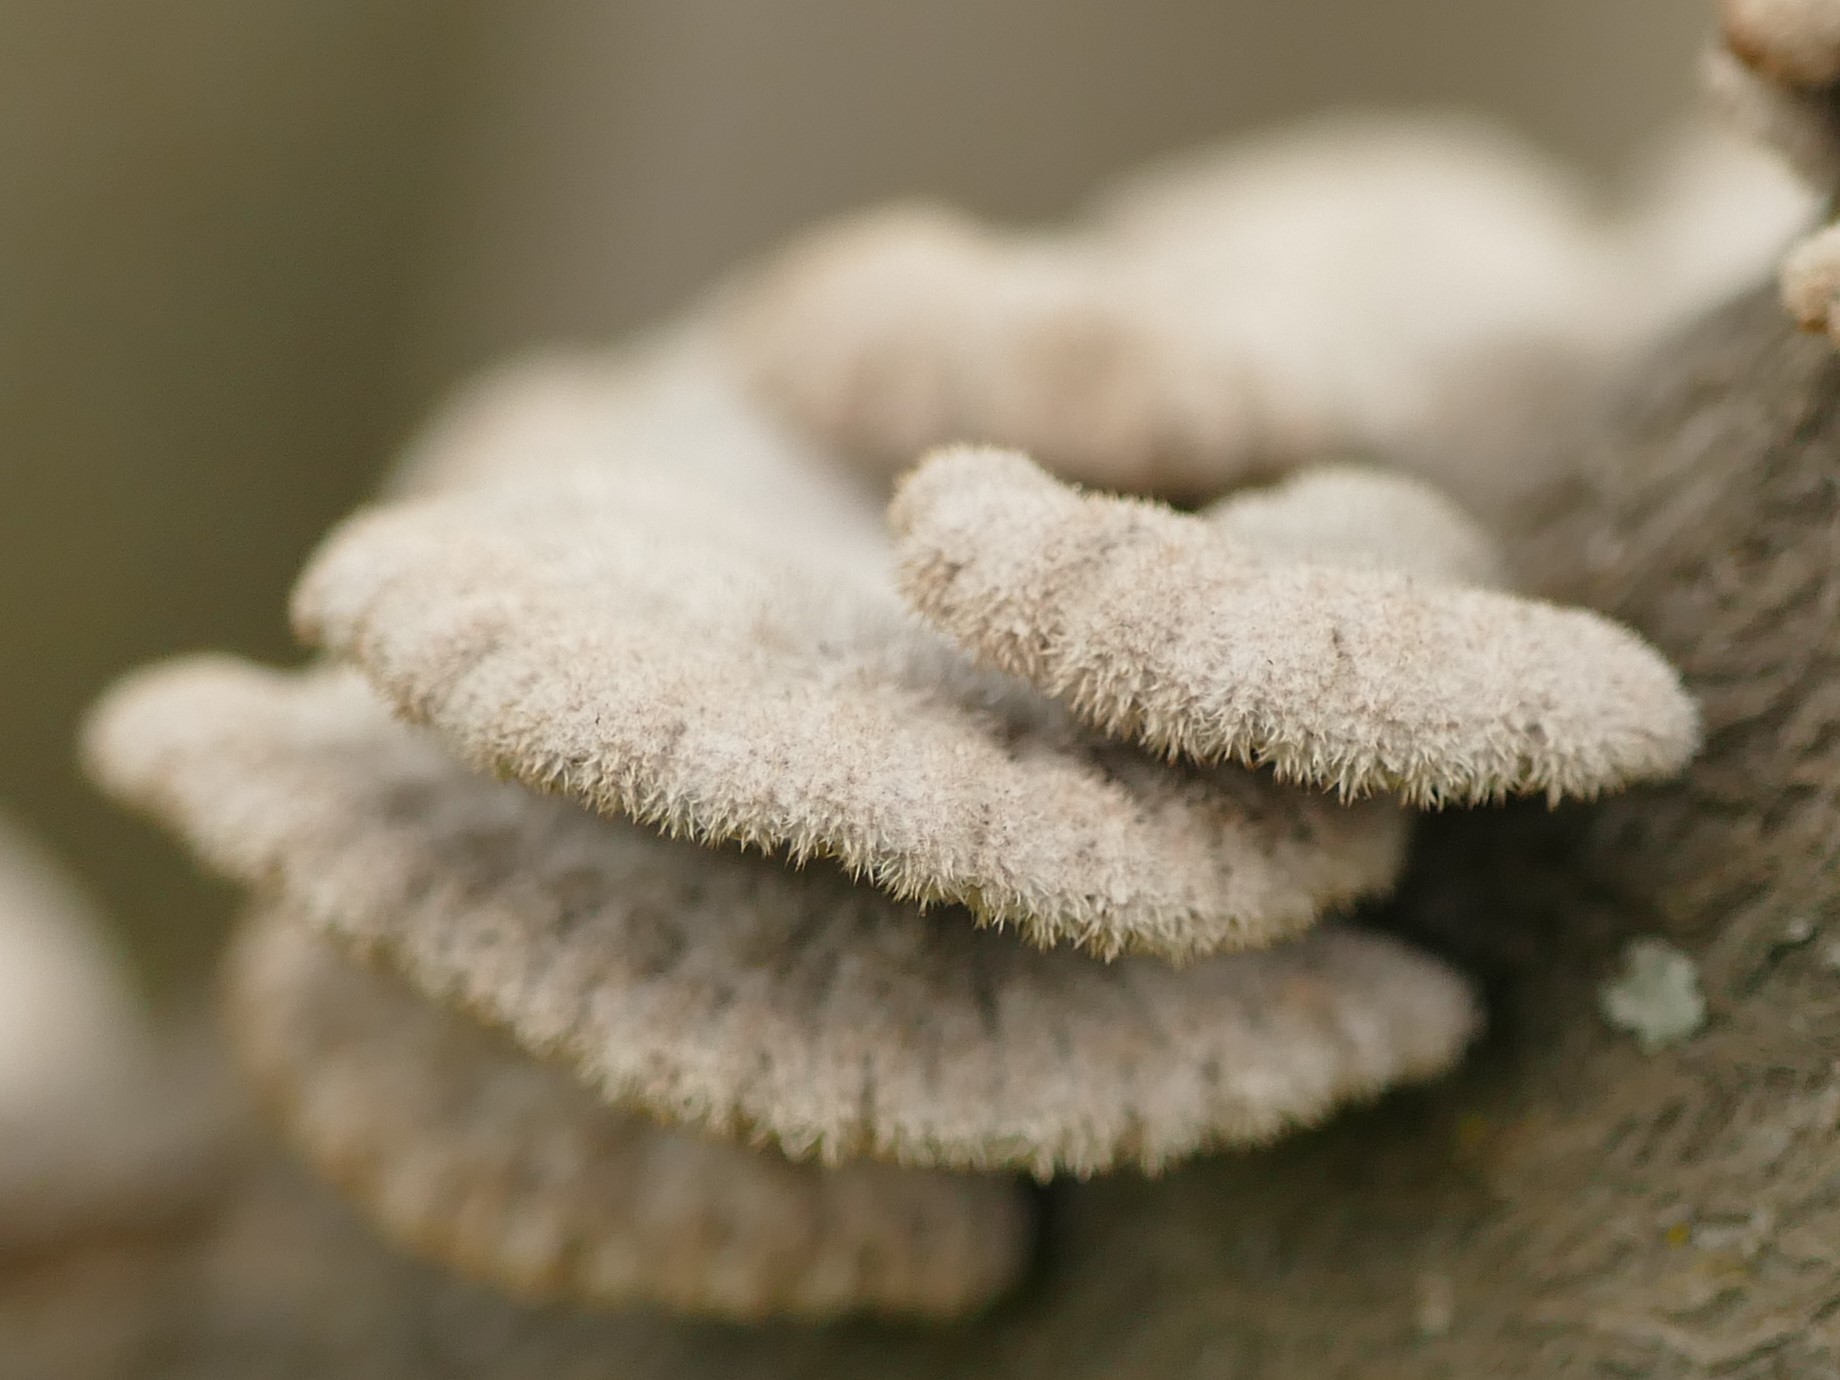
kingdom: Fungi
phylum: Basidiomycota
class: Agaricomycetes
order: Agaricales
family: Schizophyllaceae
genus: Schizophyllum
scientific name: Schizophyllum commune
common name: Common porecrust
